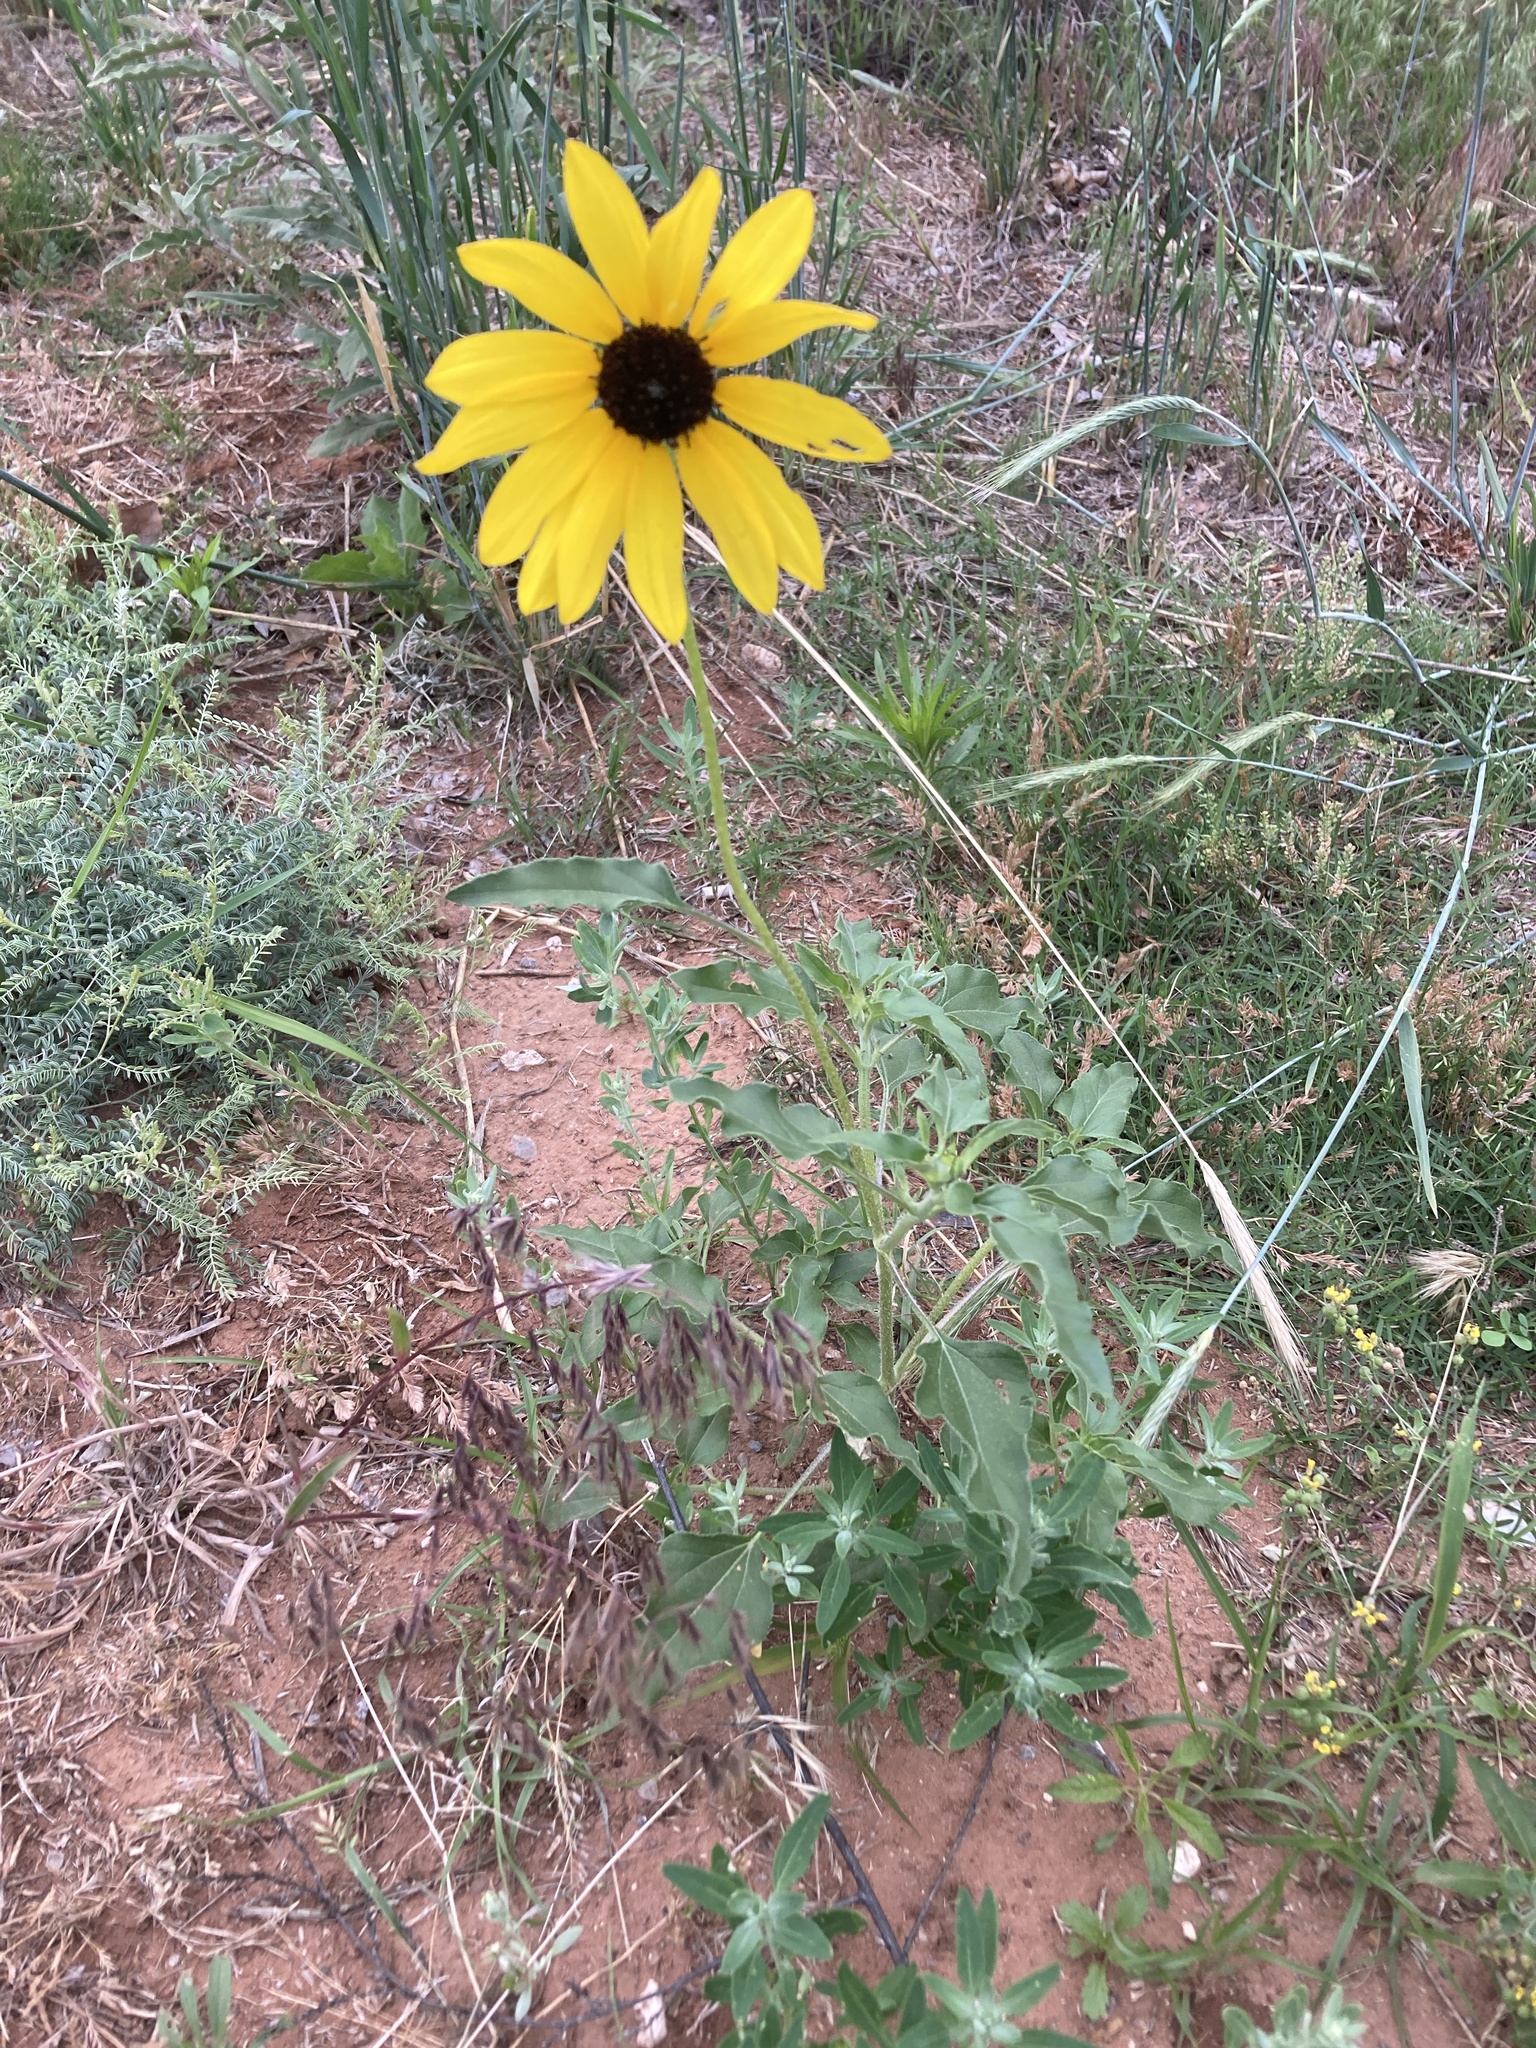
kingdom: Plantae
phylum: Tracheophyta
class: Magnoliopsida
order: Asterales
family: Asteraceae
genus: Helianthus
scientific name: Helianthus petiolaris
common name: Lesser sunflower
